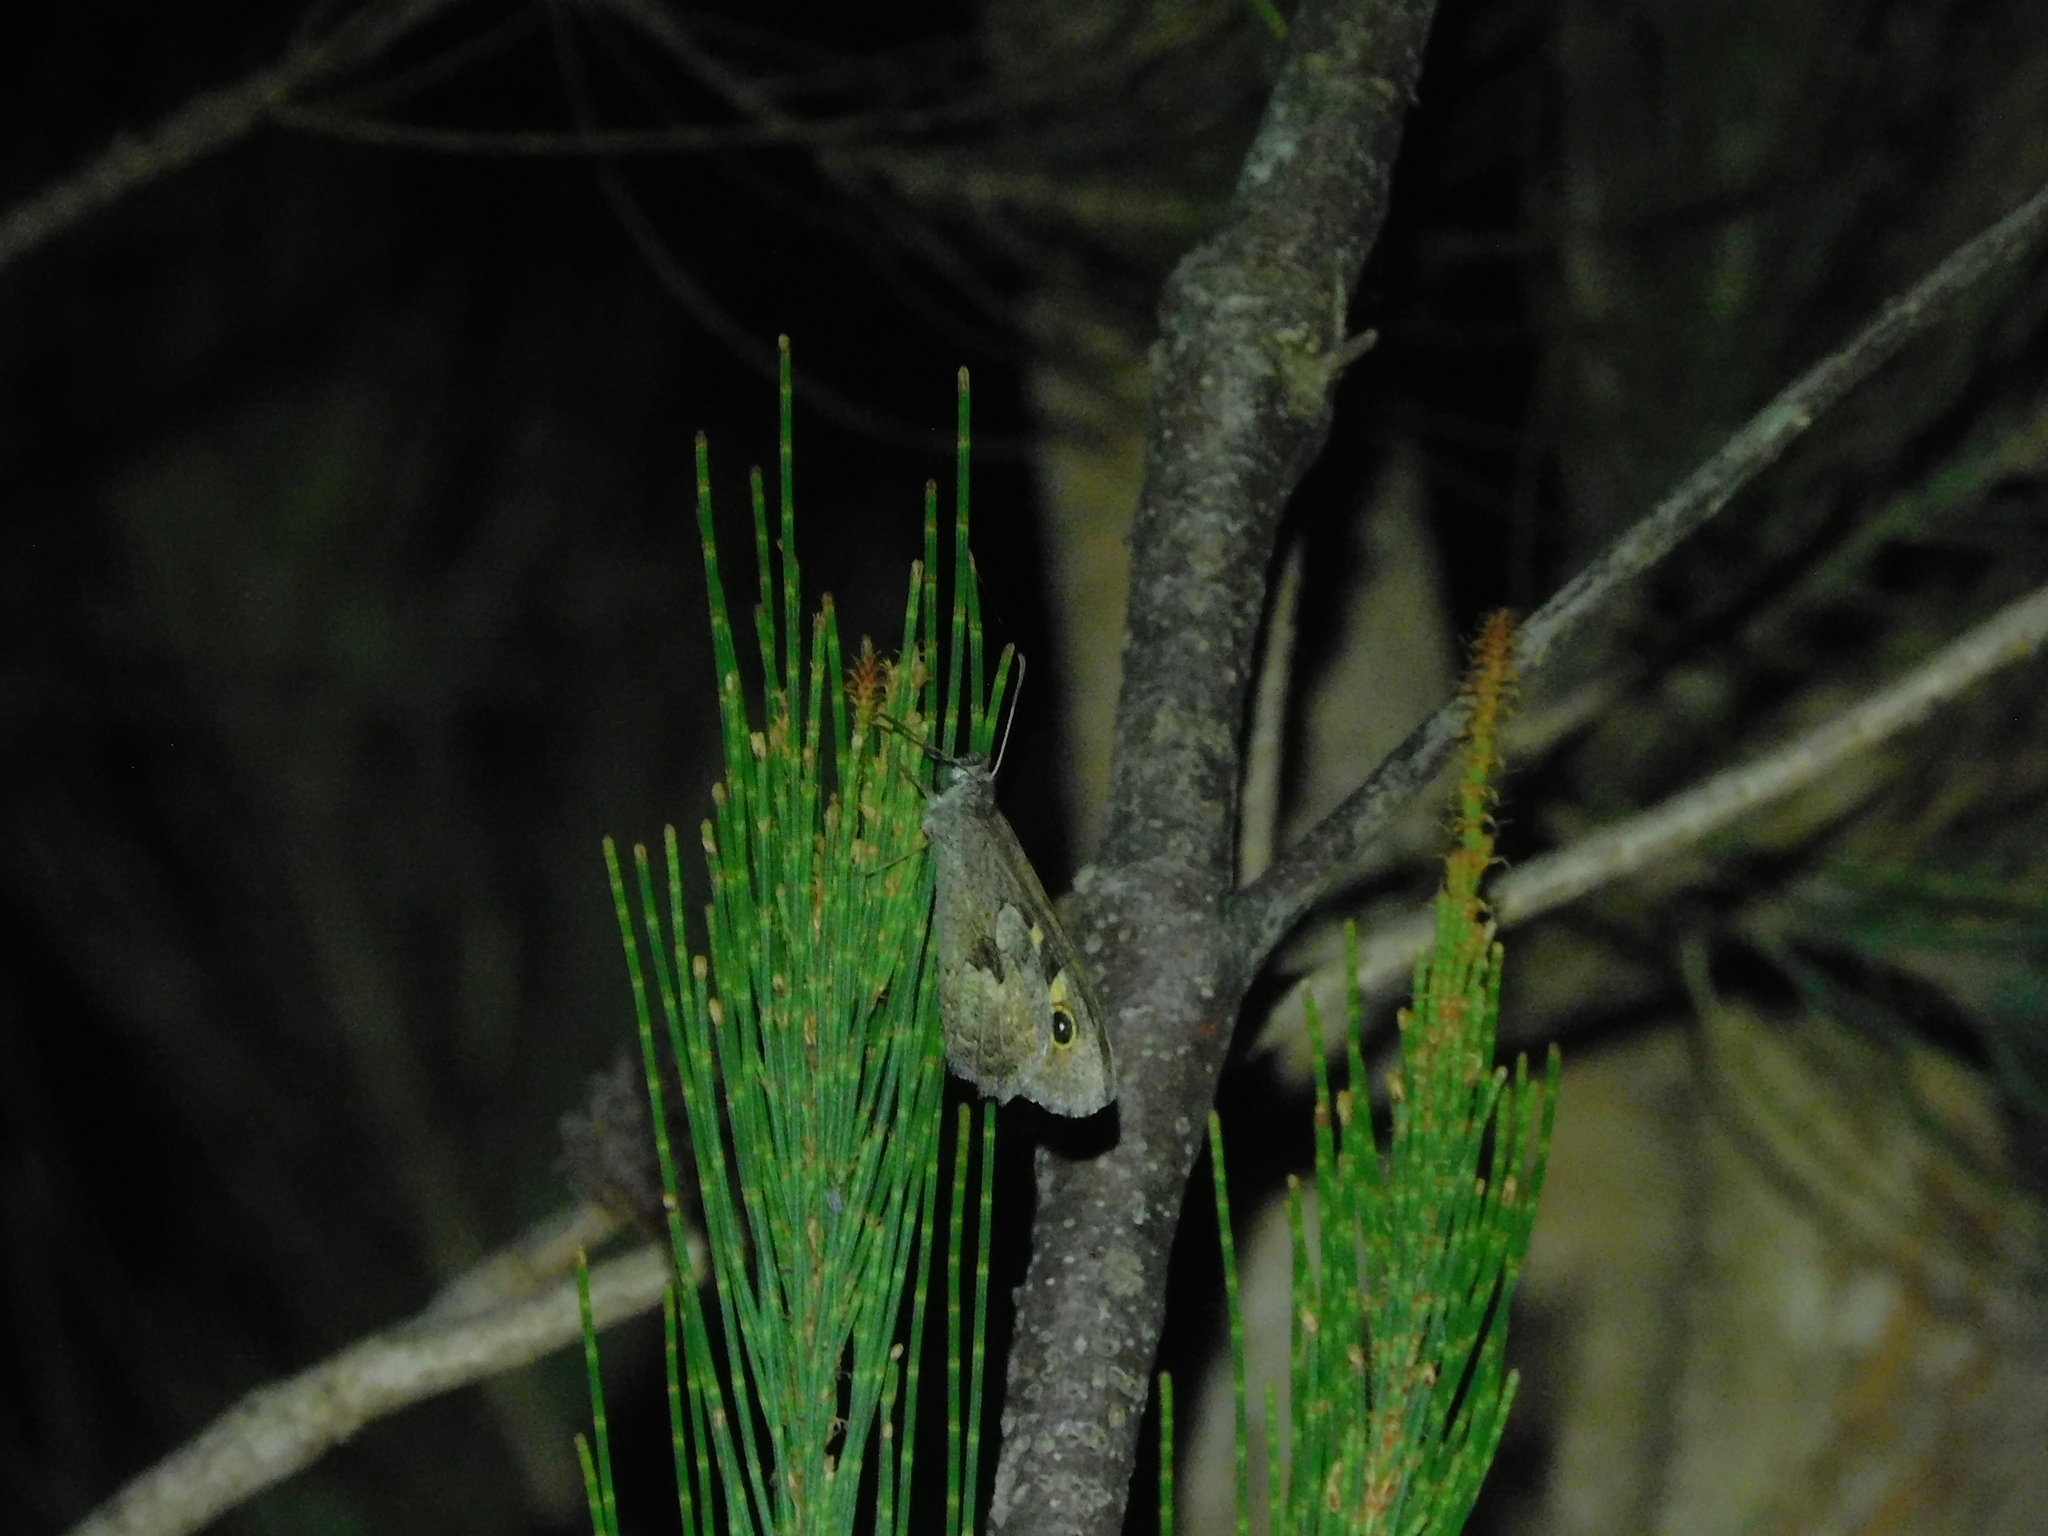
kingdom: Animalia
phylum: Arthropoda
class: Insecta
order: Lepidoptera
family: Nymphalidae
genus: Geitoneura
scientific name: Geitoneura klugii
